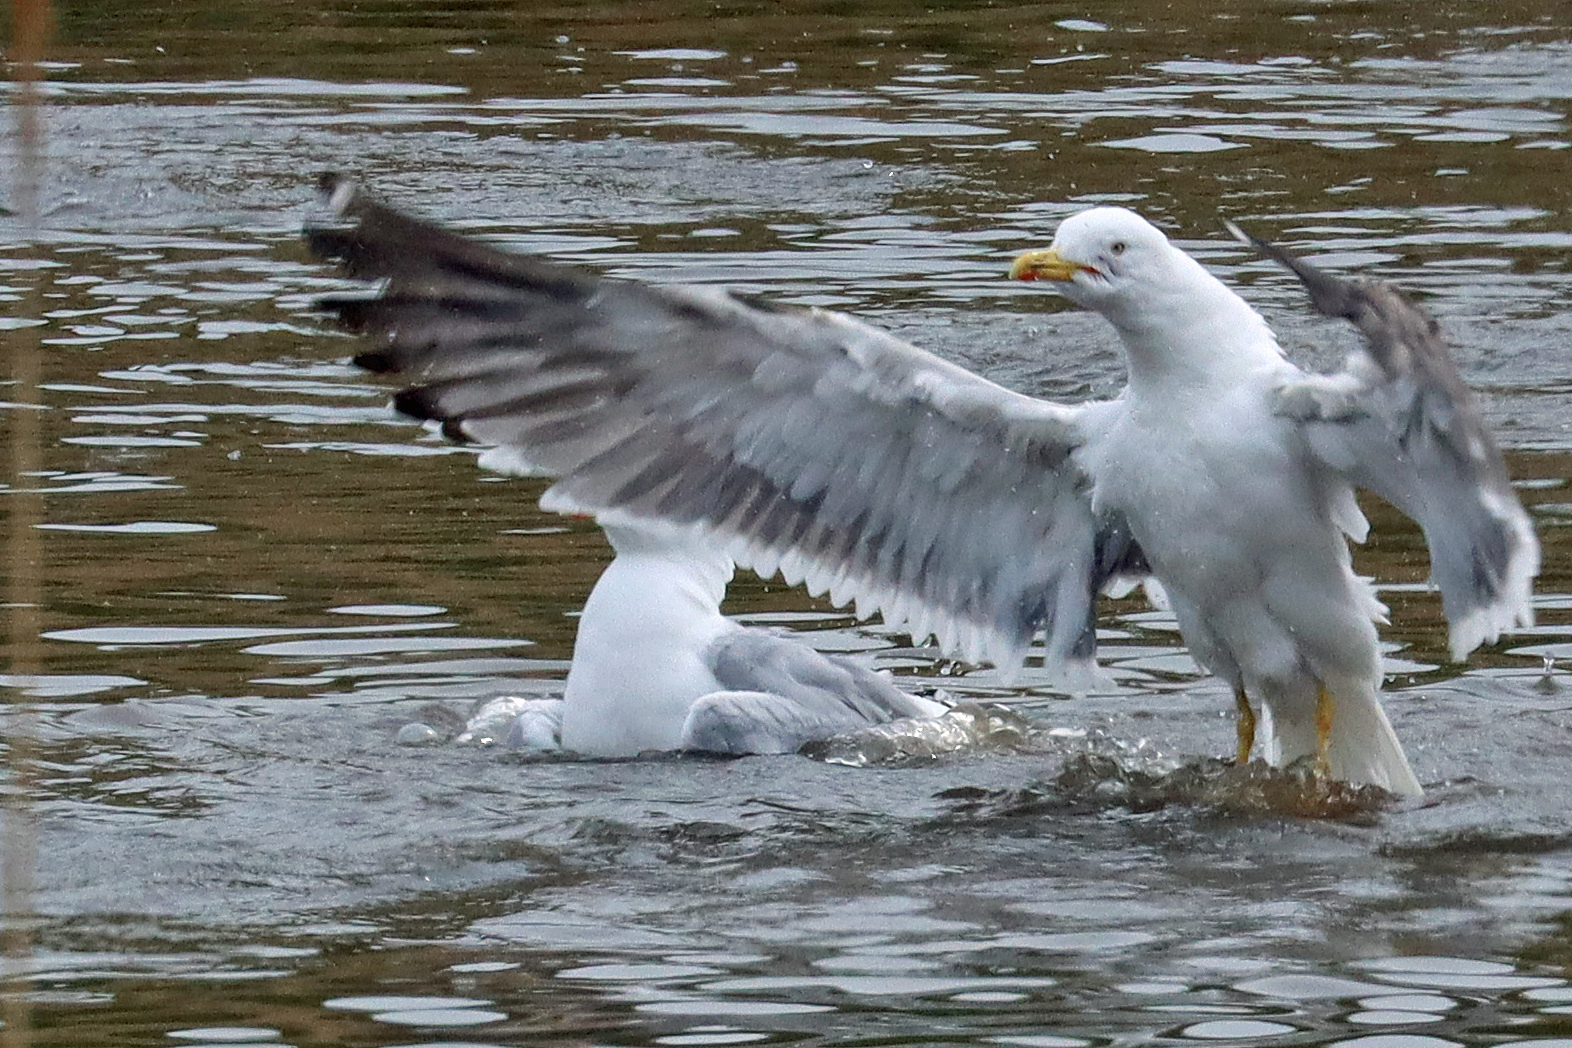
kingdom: Animalia
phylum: Chordata
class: Aves
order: Charadriiformes
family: Laridae
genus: Larus
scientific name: Larus fuscus
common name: Lesser black-backed gull
